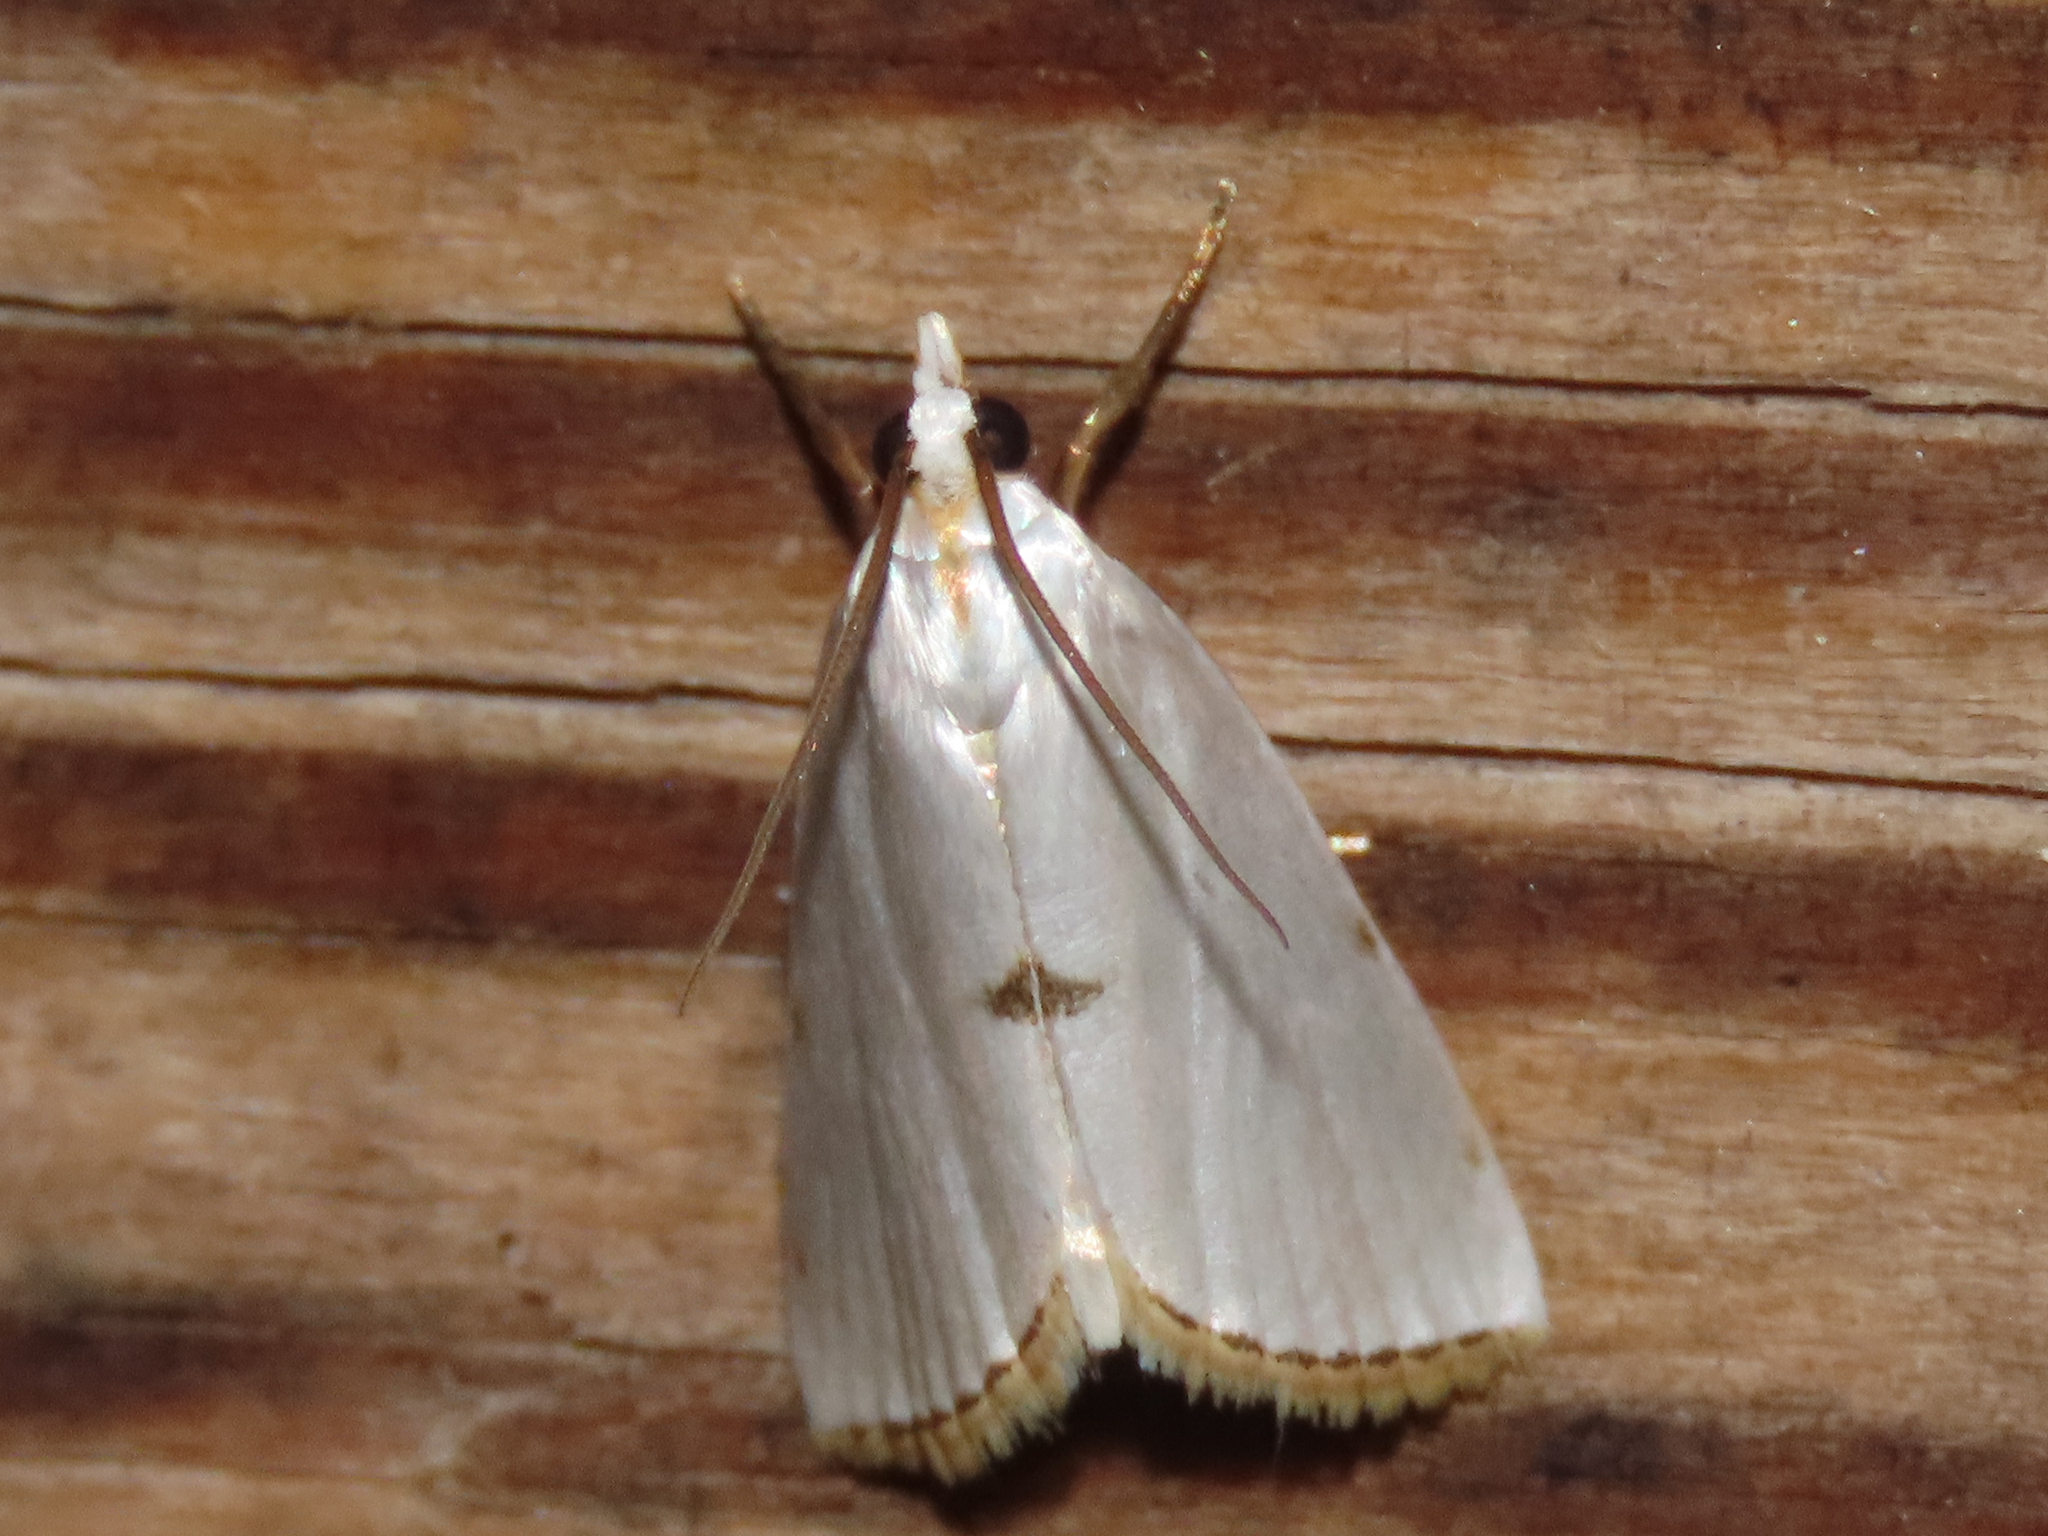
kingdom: Animalia
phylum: Arthropoda
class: Insecta
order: Lepidoptera
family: Crambidae
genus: Argyria
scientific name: Argyria nivalis
